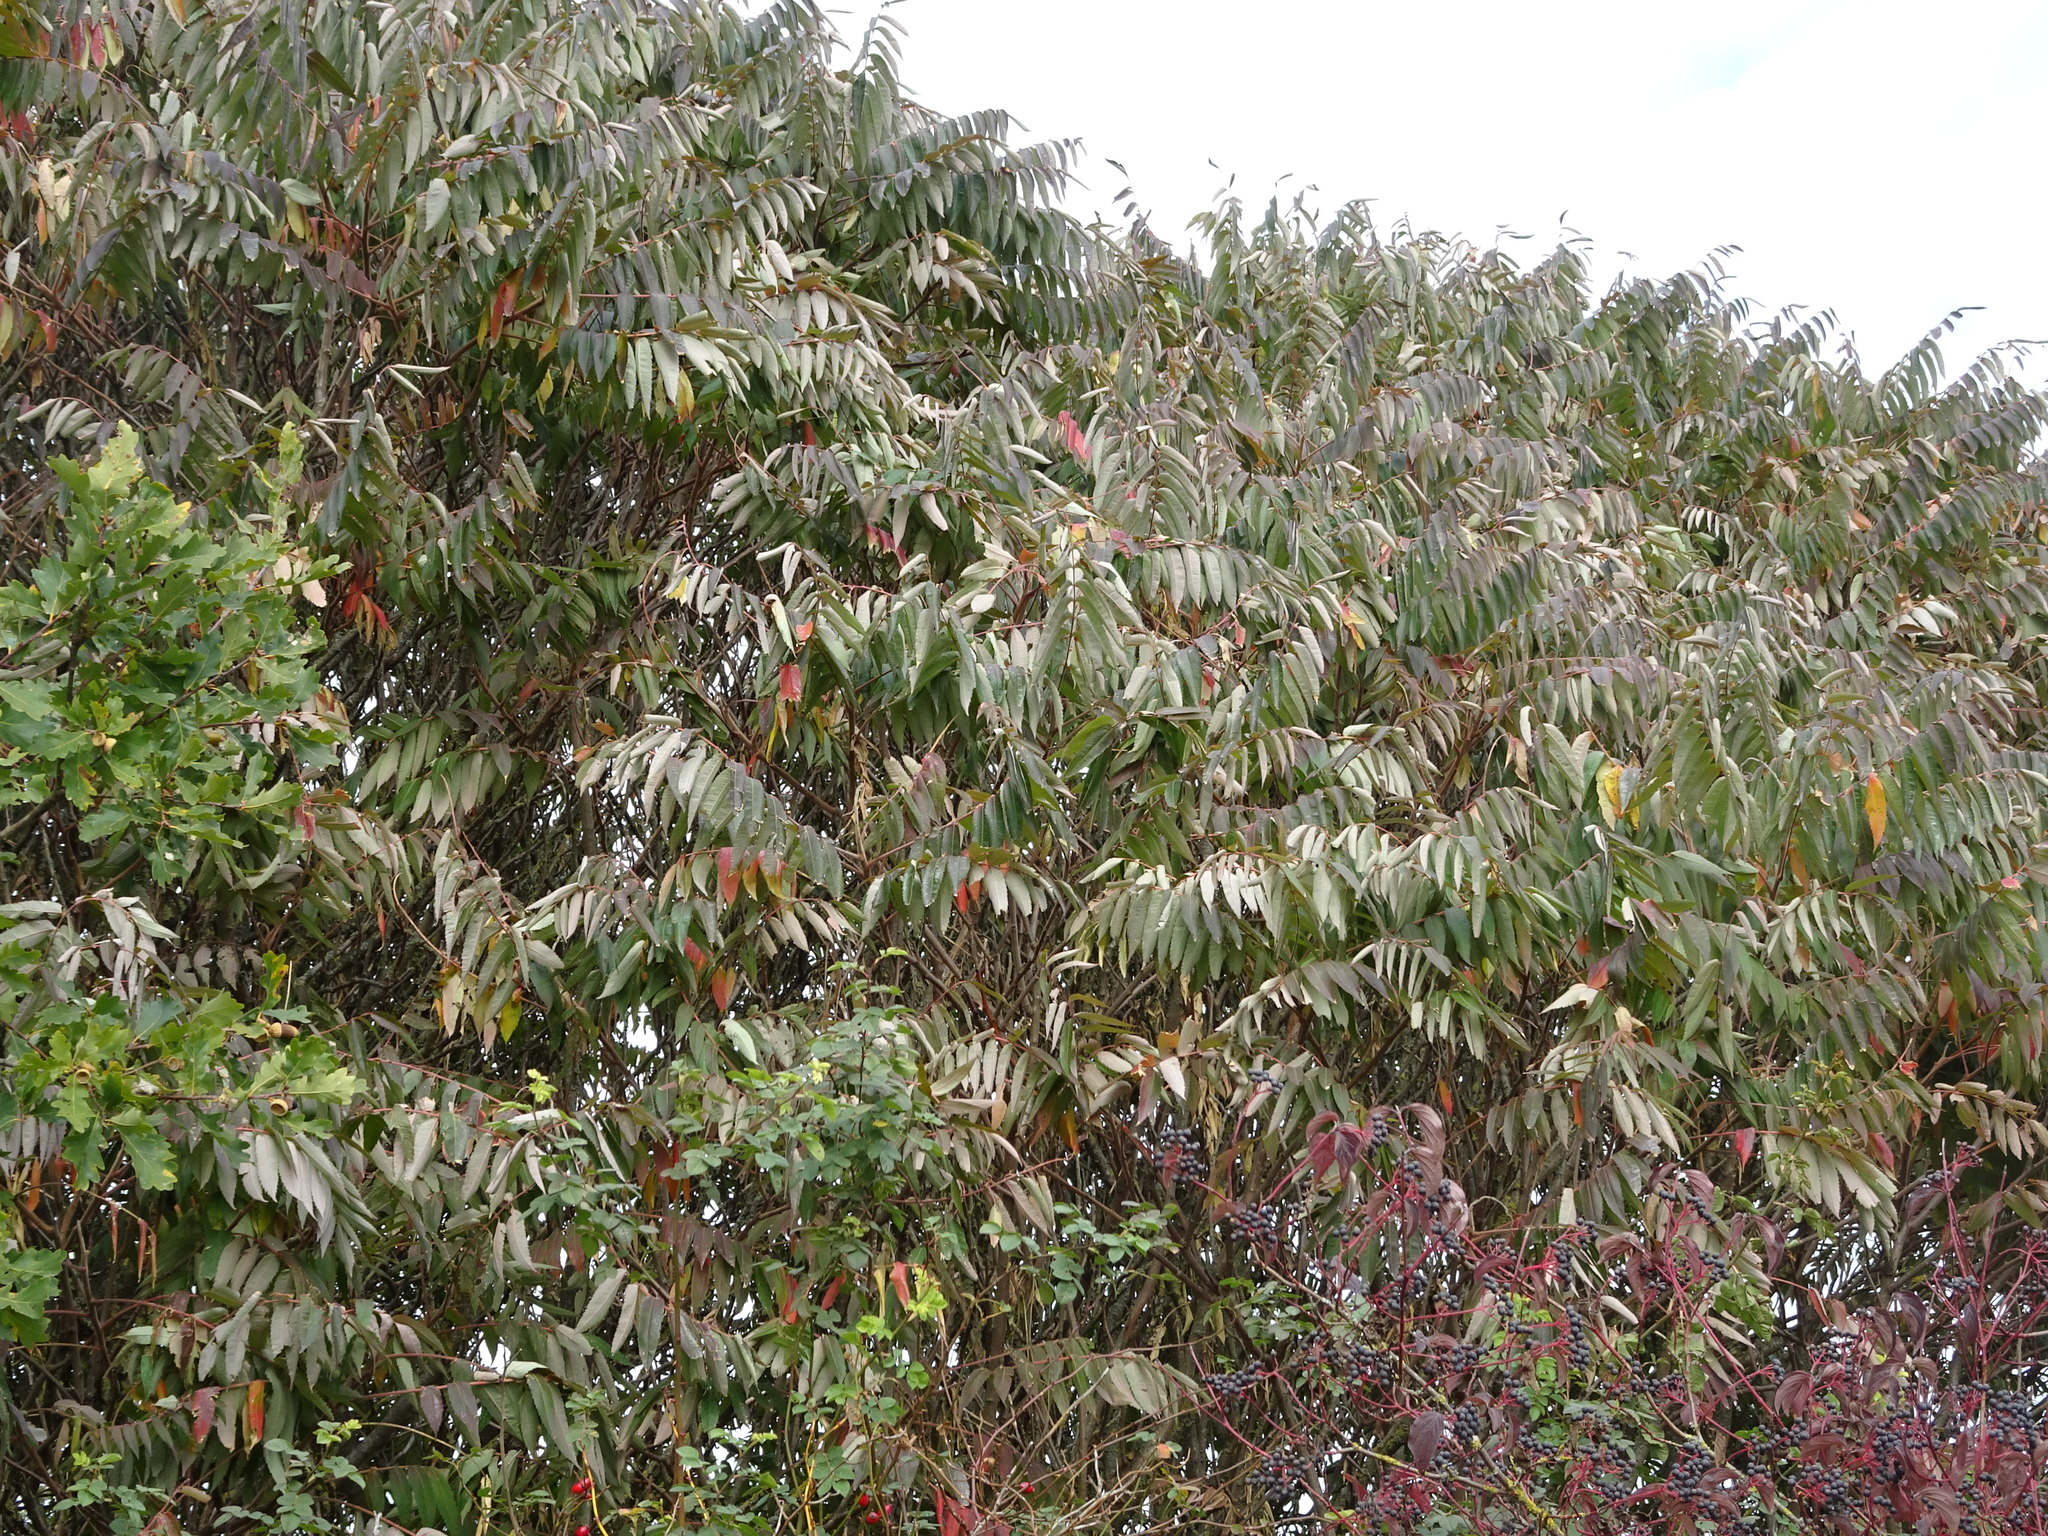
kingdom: Plantae
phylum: Tracheophyta
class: Magnoliopsida
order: Sapindales
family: Anacardiaceae
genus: Rhus
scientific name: Rhus typhina
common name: Staghorn sumac
